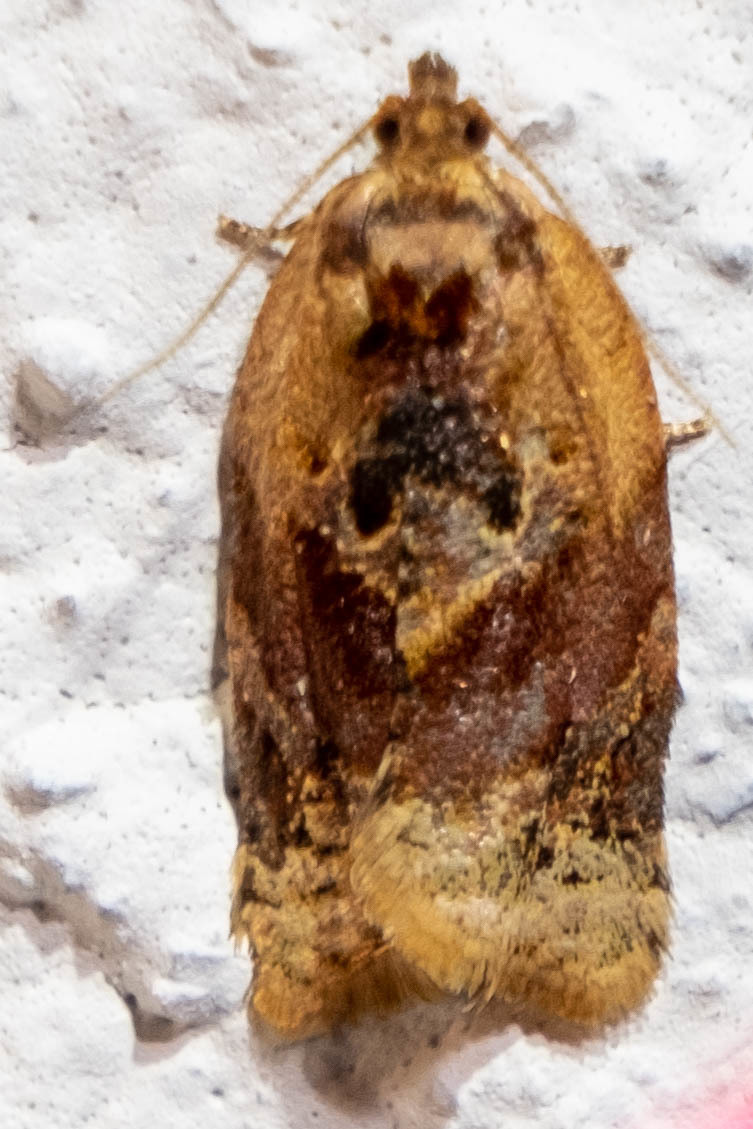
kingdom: Animalia
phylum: Arthropoda
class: Insecta
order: Lepidoptera
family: Tortricidae
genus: Argyrotaenia
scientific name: Argyrotaenia velutinana
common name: Red-banded leafroller moth
